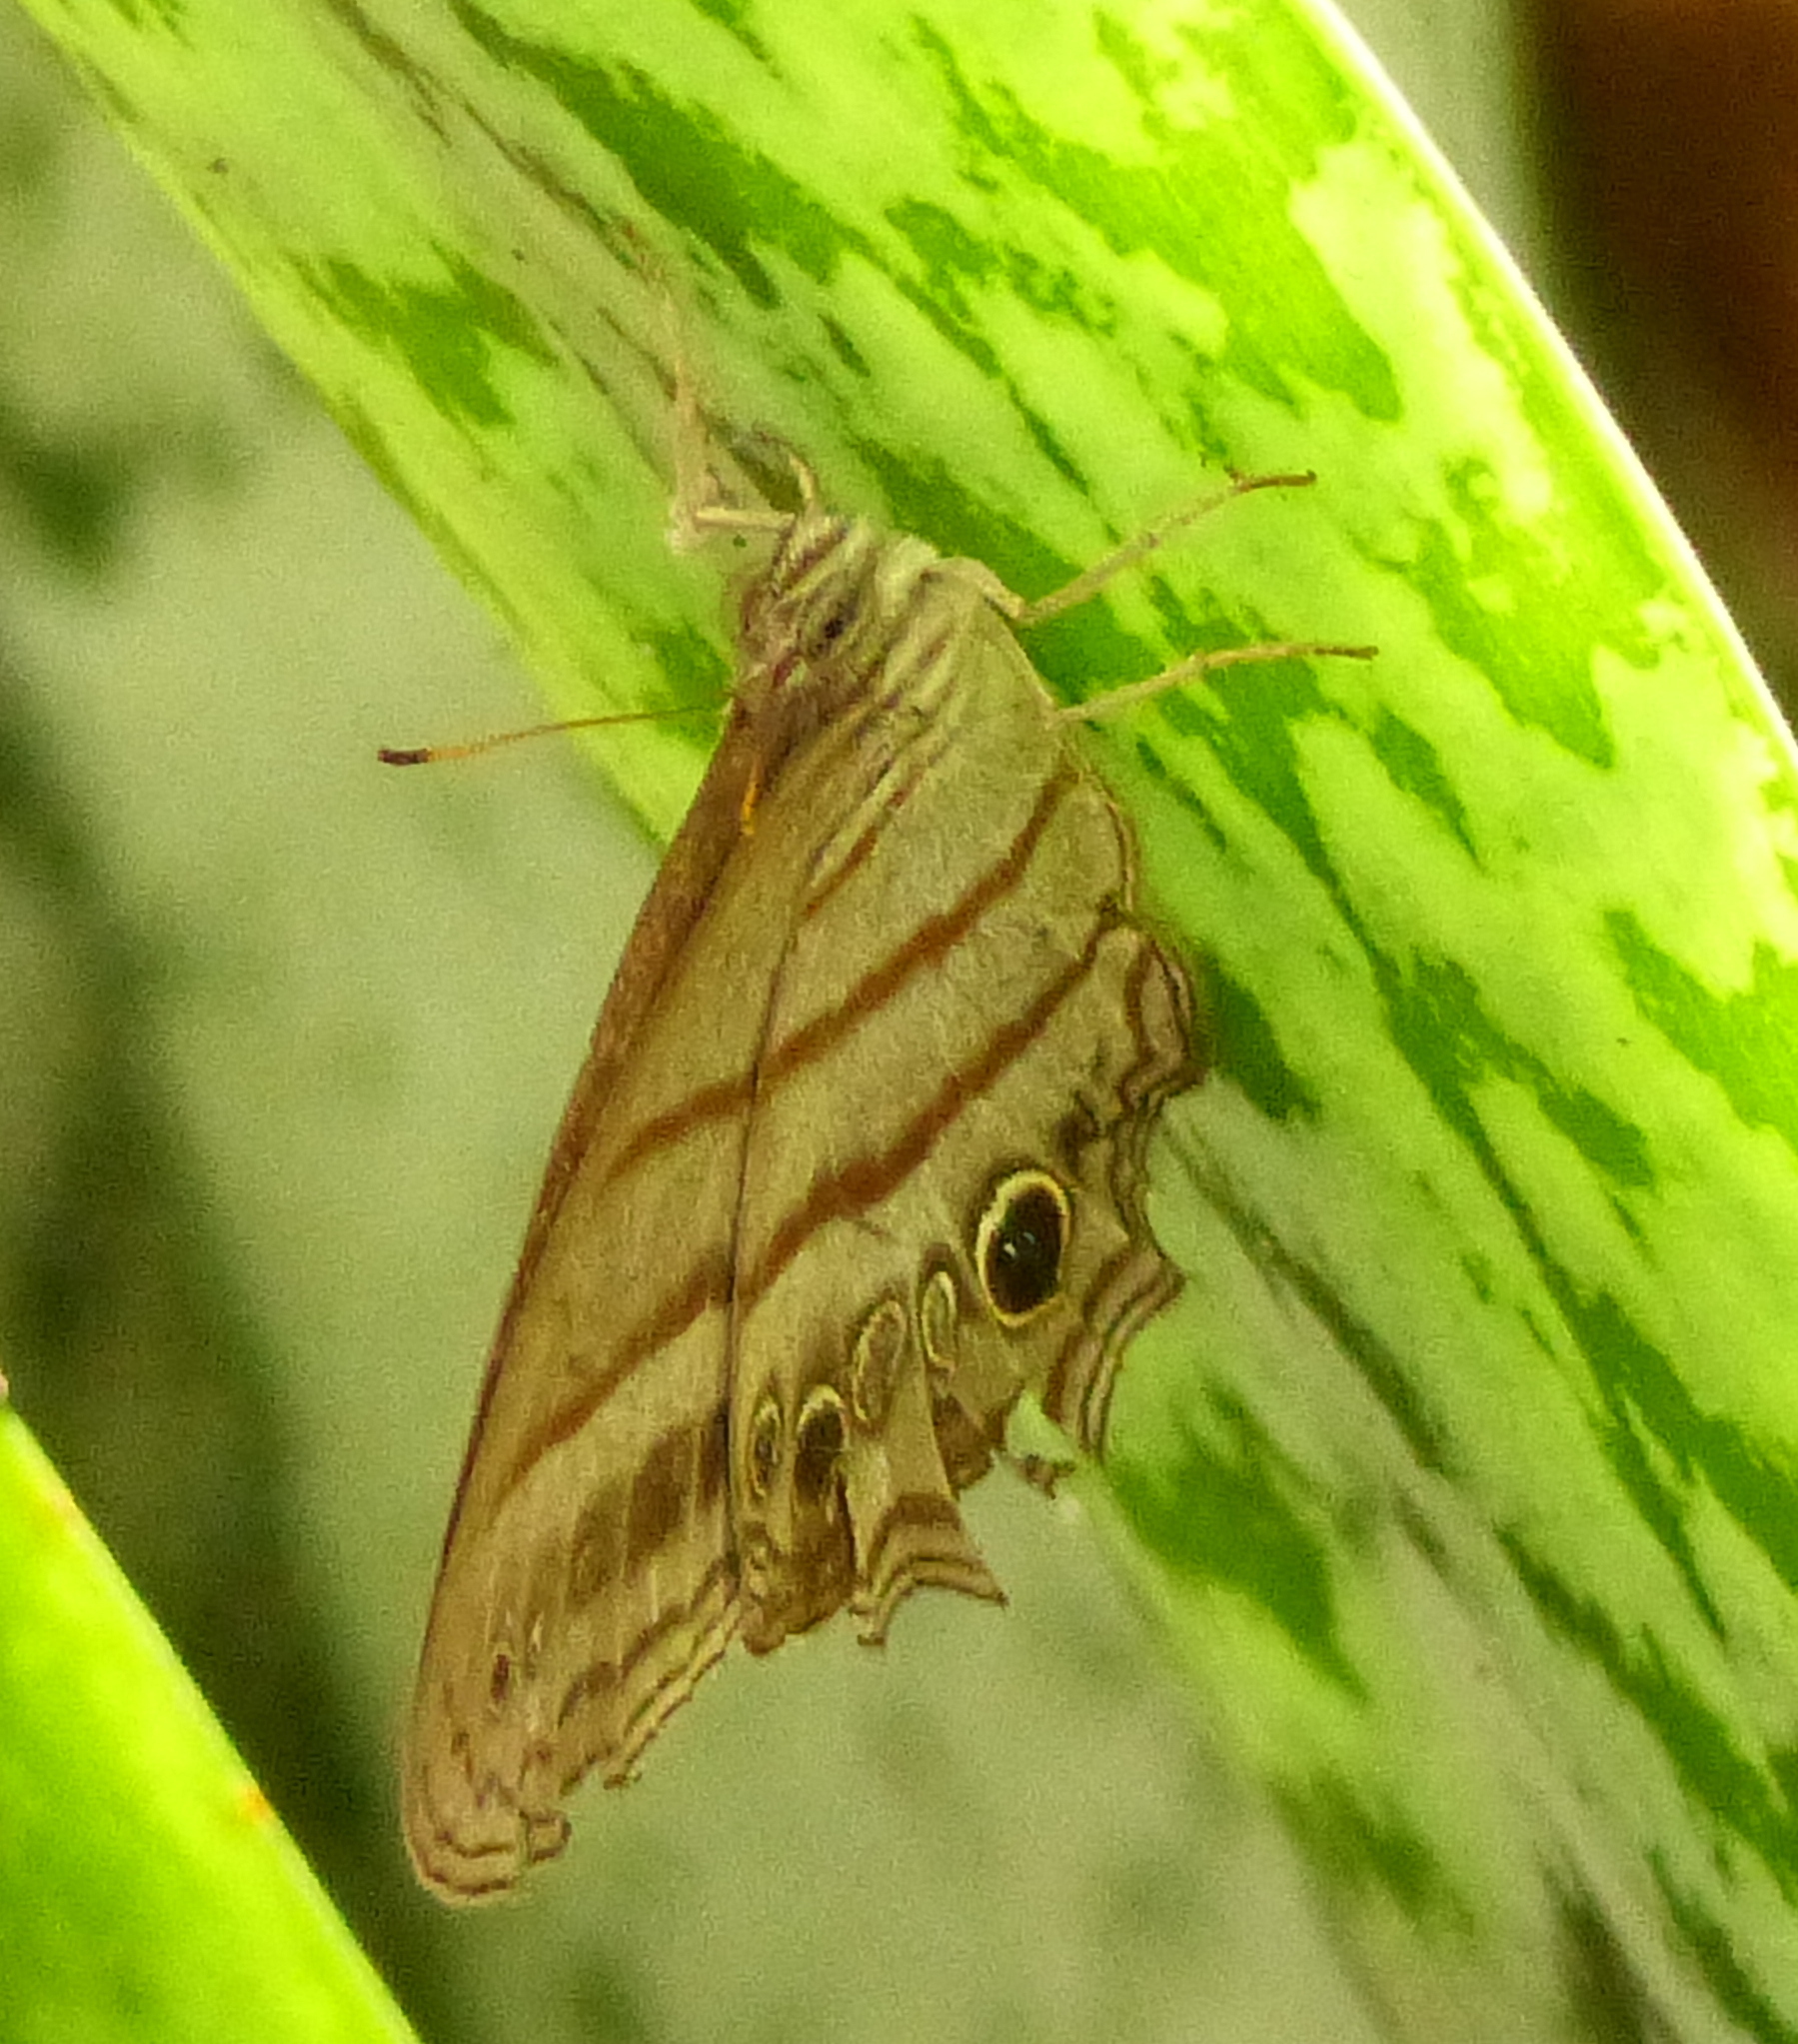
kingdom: Animalia
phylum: Arthropoda
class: Insecta
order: Lepidoptera
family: Nymphalidae
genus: Magneuptychia
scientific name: Magneuptychia libye
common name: Blue-gray satyr
